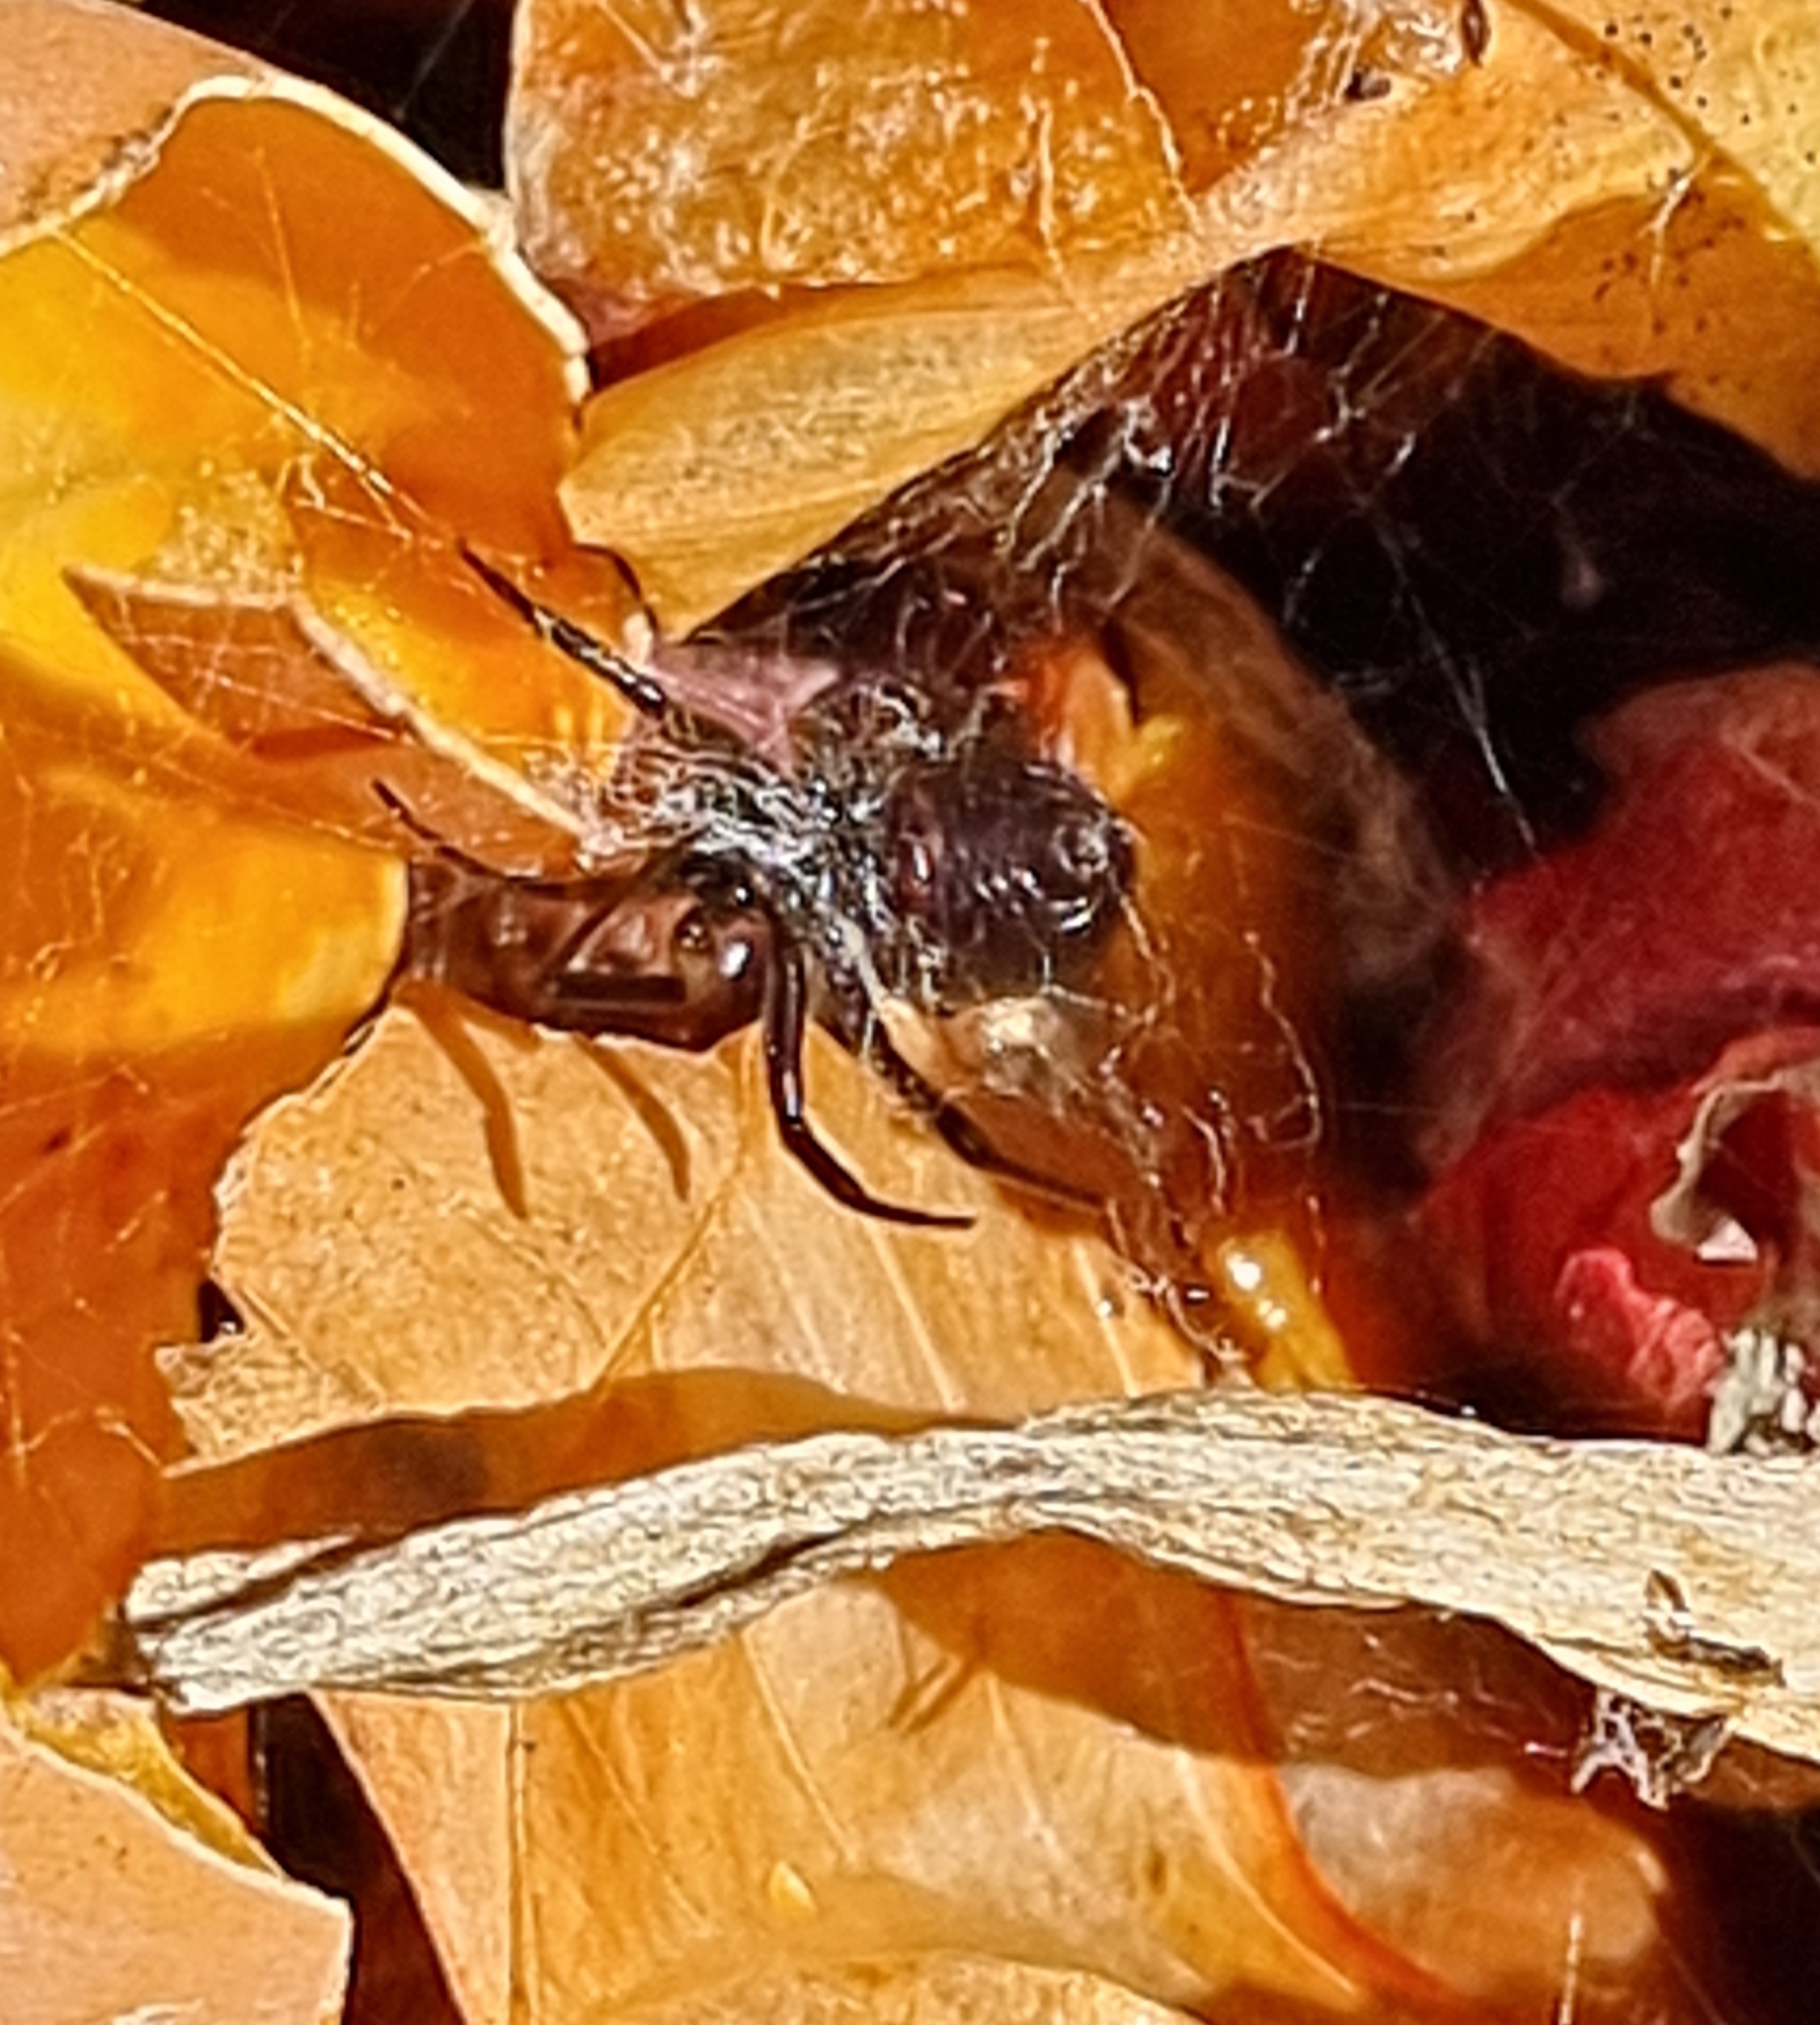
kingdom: Animalia
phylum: Arthropoda
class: Arachnida
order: Araneae
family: Theridiidae
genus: Steatoda
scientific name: Steatoda grossa
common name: False black widow
